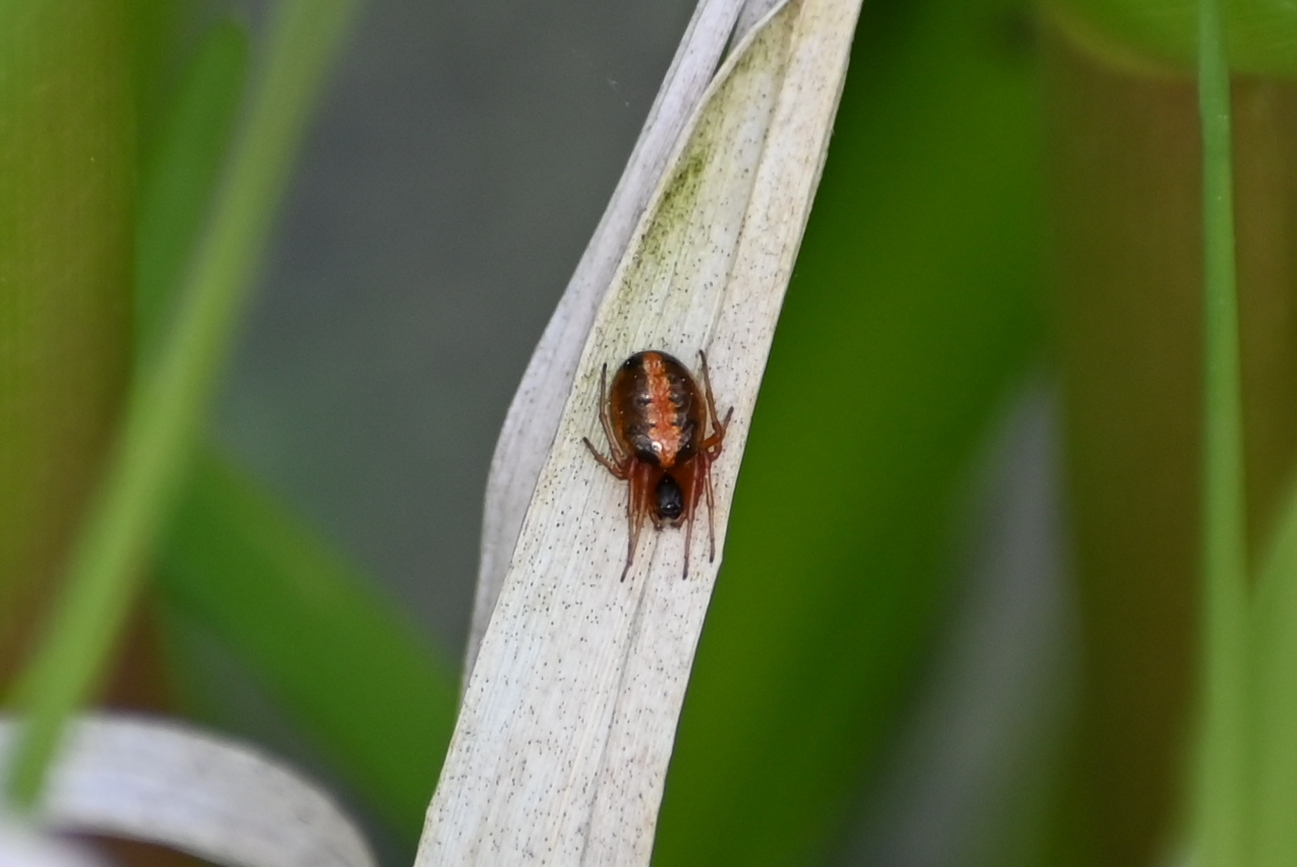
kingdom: Animalia
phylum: Arthropoda
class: Arachnida
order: Araneae
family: Araneidae
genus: Hypsosinga
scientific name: Hypsosinga heri
